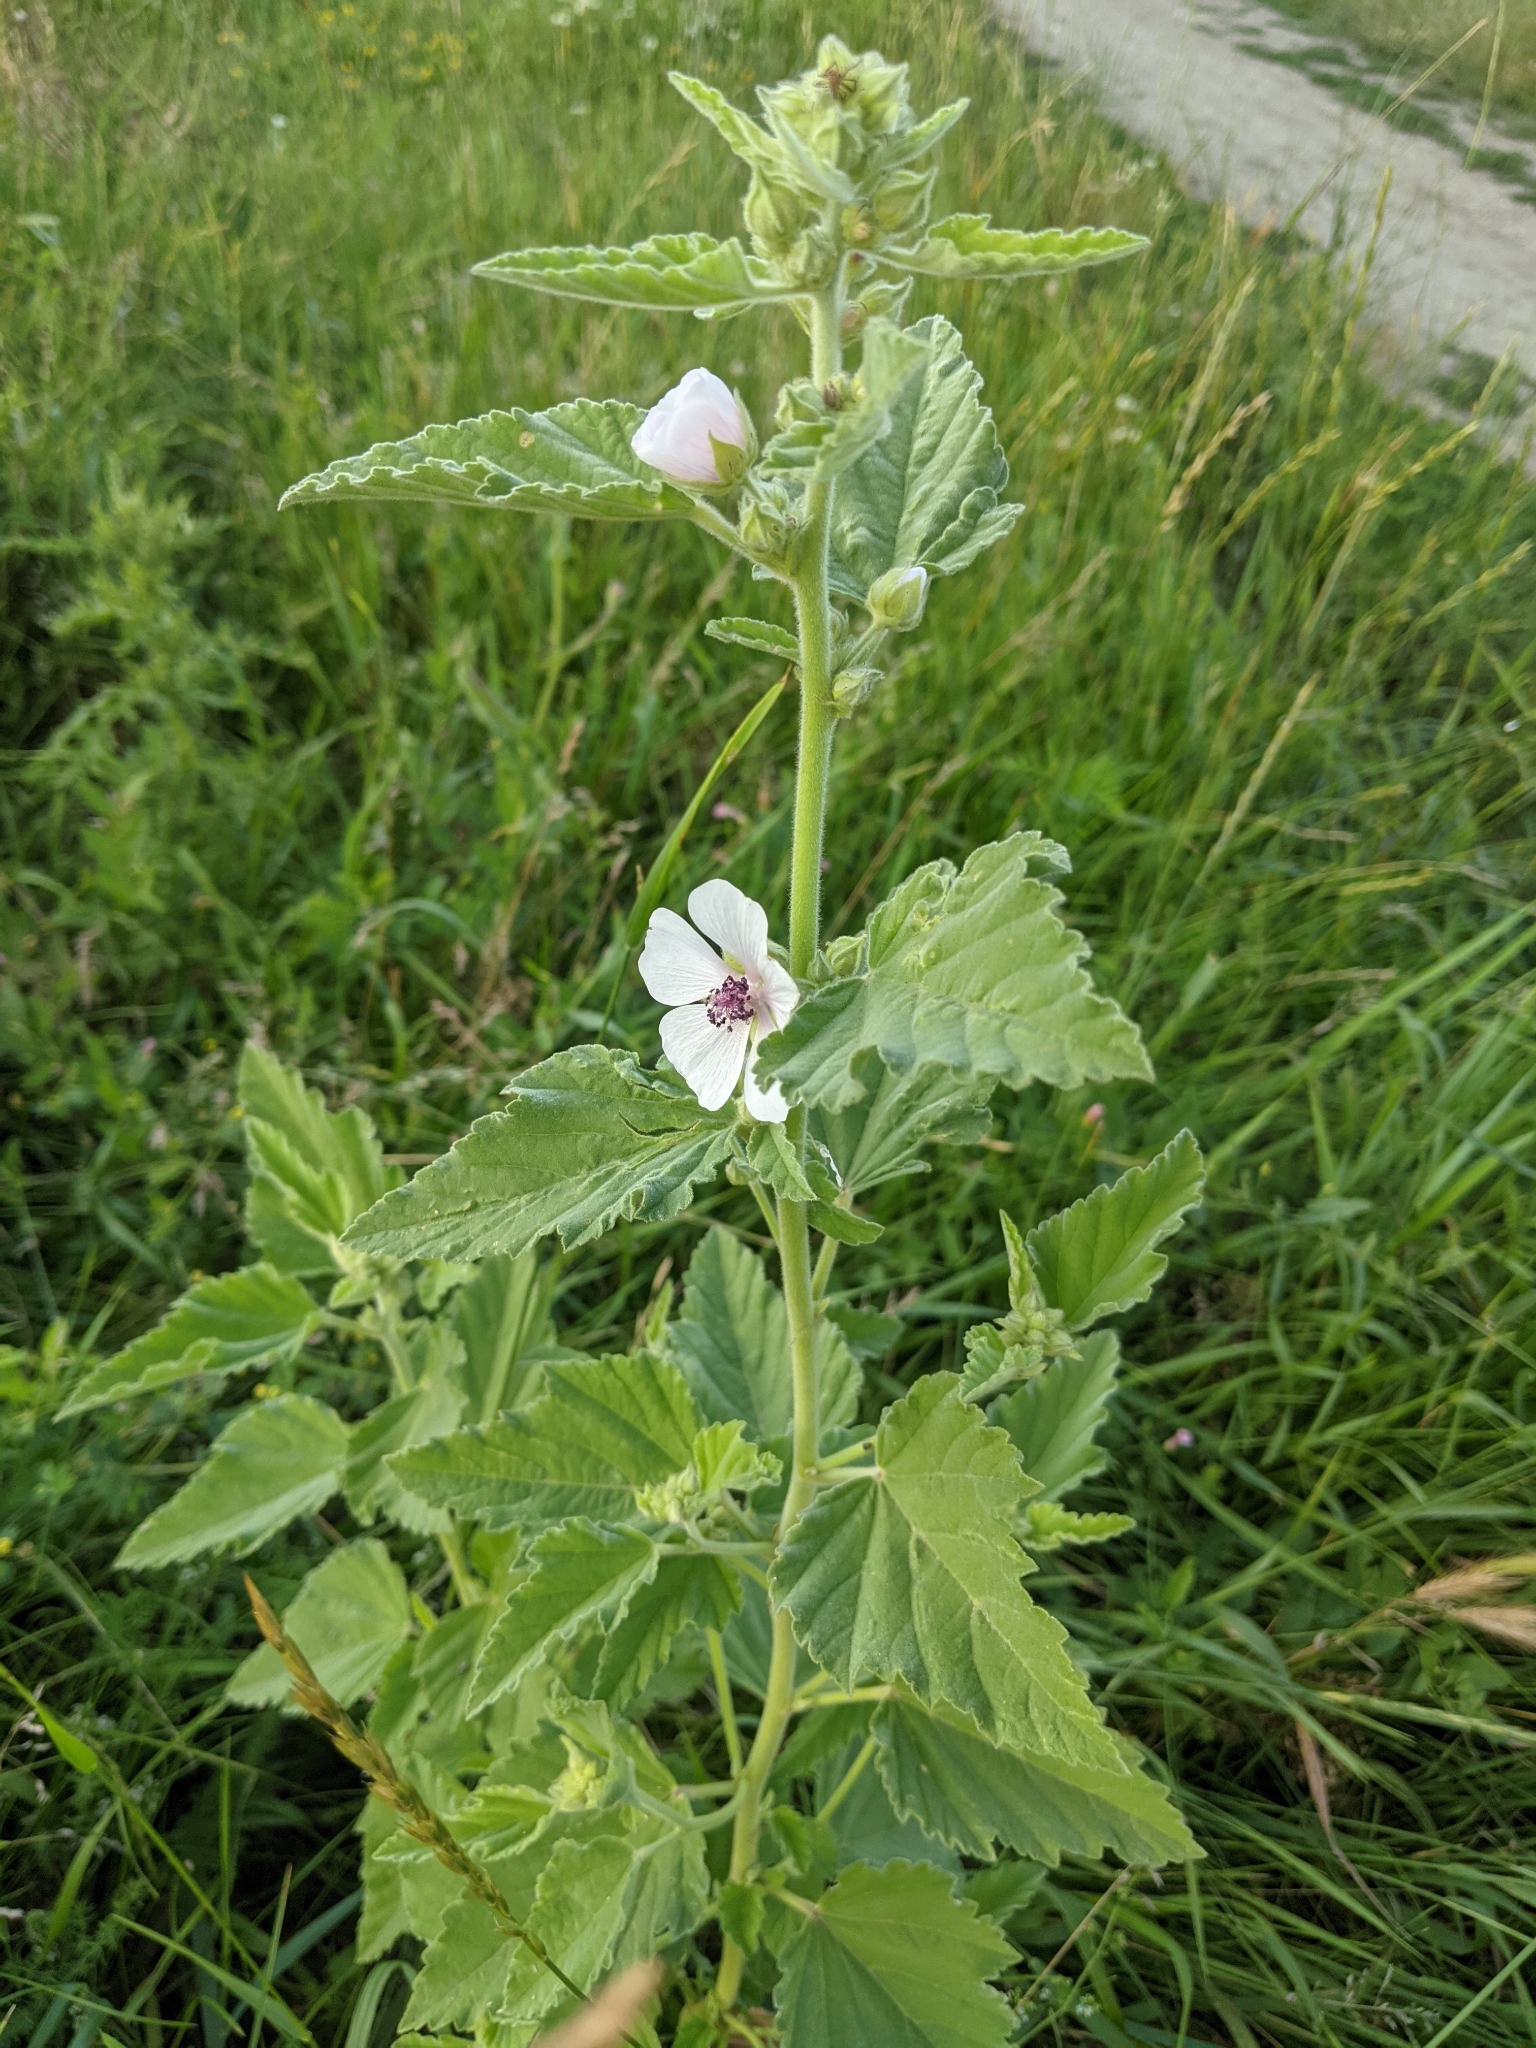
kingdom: Plantae
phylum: Tracheophyta
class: Magnoliopsida
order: Malvales
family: Malvaceae
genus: Althaea
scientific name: Althaea officinalis
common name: Marsh-mallow
